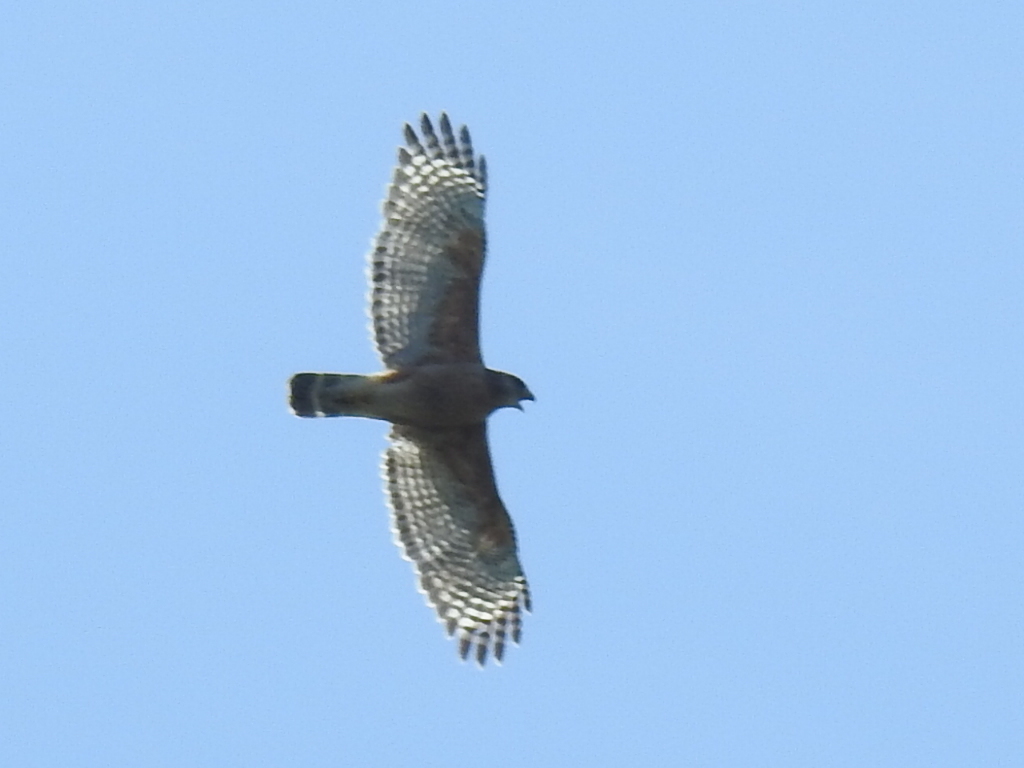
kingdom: Animalia
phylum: Chordata
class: Aves
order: Accipitriformes
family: Accipitridae
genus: Buteo
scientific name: Buteo lineatus
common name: Red-shouldered hawk
